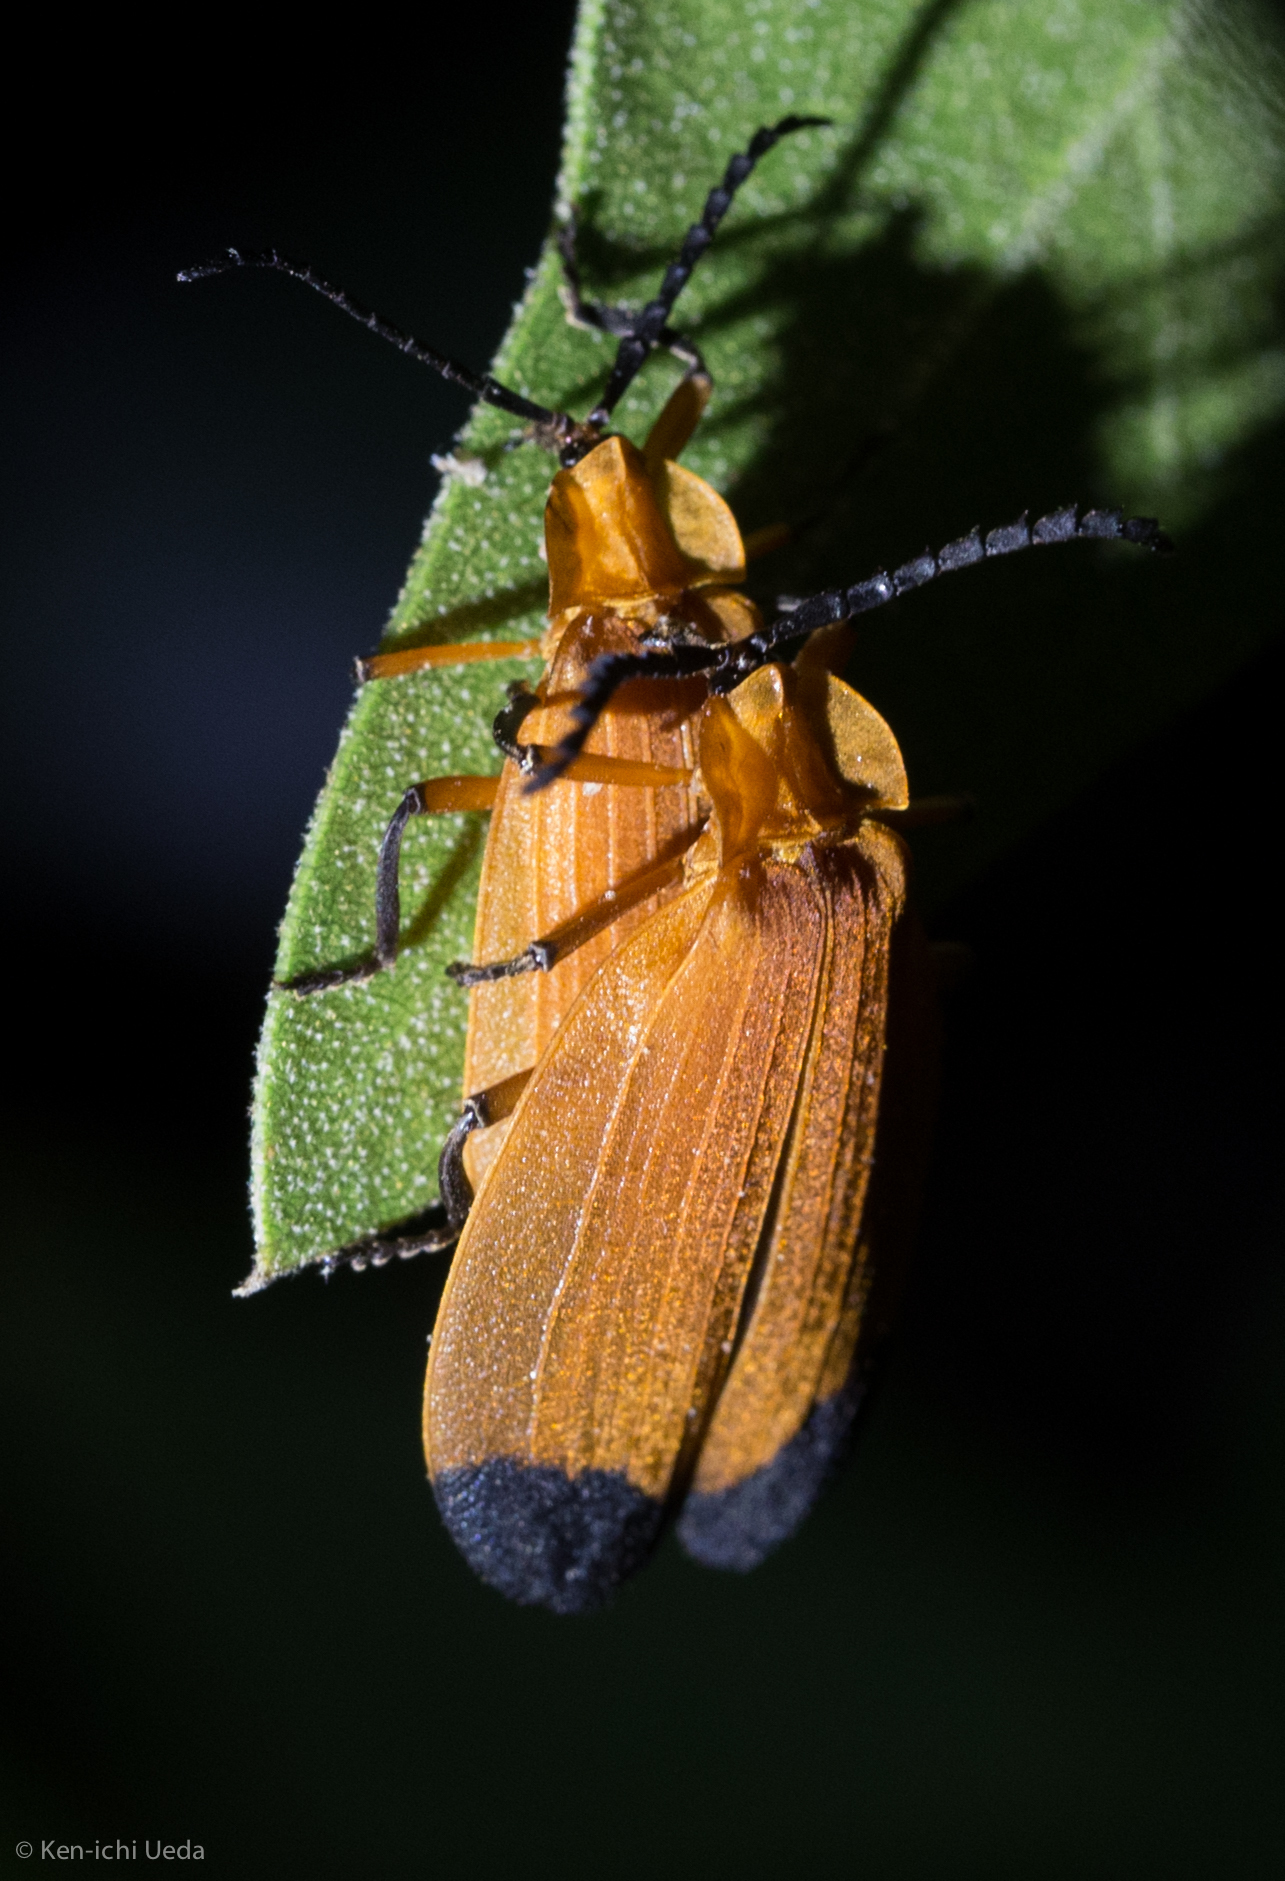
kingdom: Animalia
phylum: Arthropoda
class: Insecta
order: Coleoptera
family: Lycidae
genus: Lycus
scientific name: Lycus arizonensis
